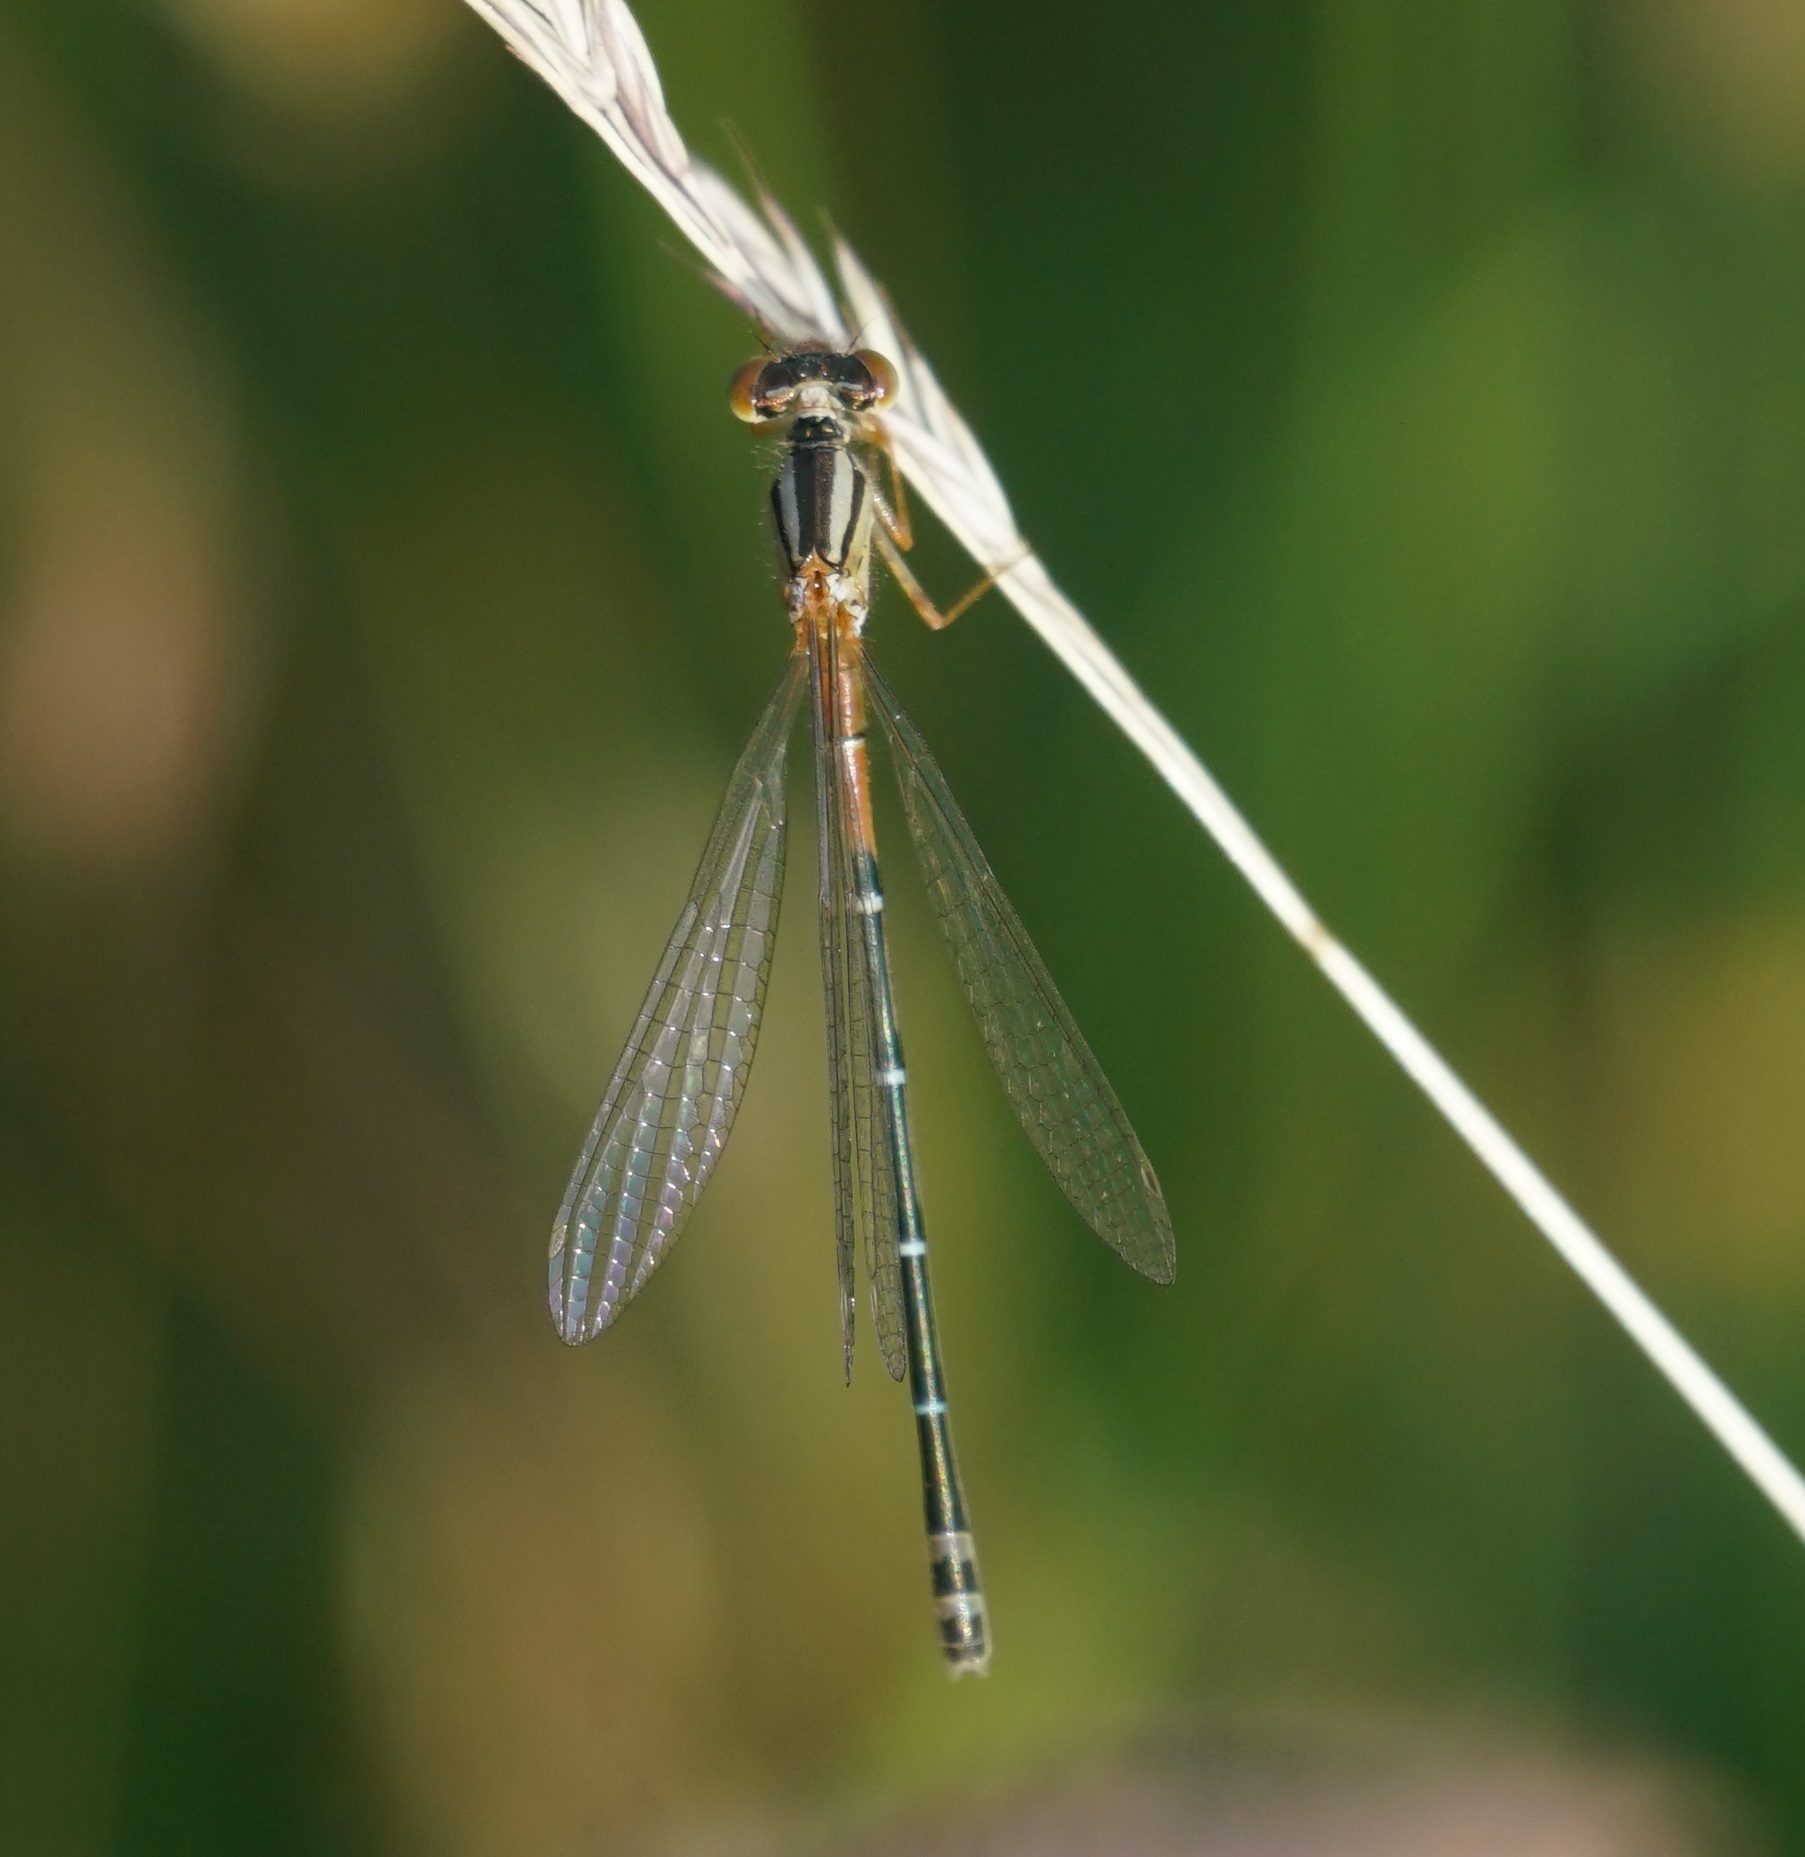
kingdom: Animalia
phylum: Arthropoda
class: Insecta
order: Odonata
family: Coenagrionidae
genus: Xanthagrion
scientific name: Xanthagrion erythroneurum
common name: Red and blue damsel
